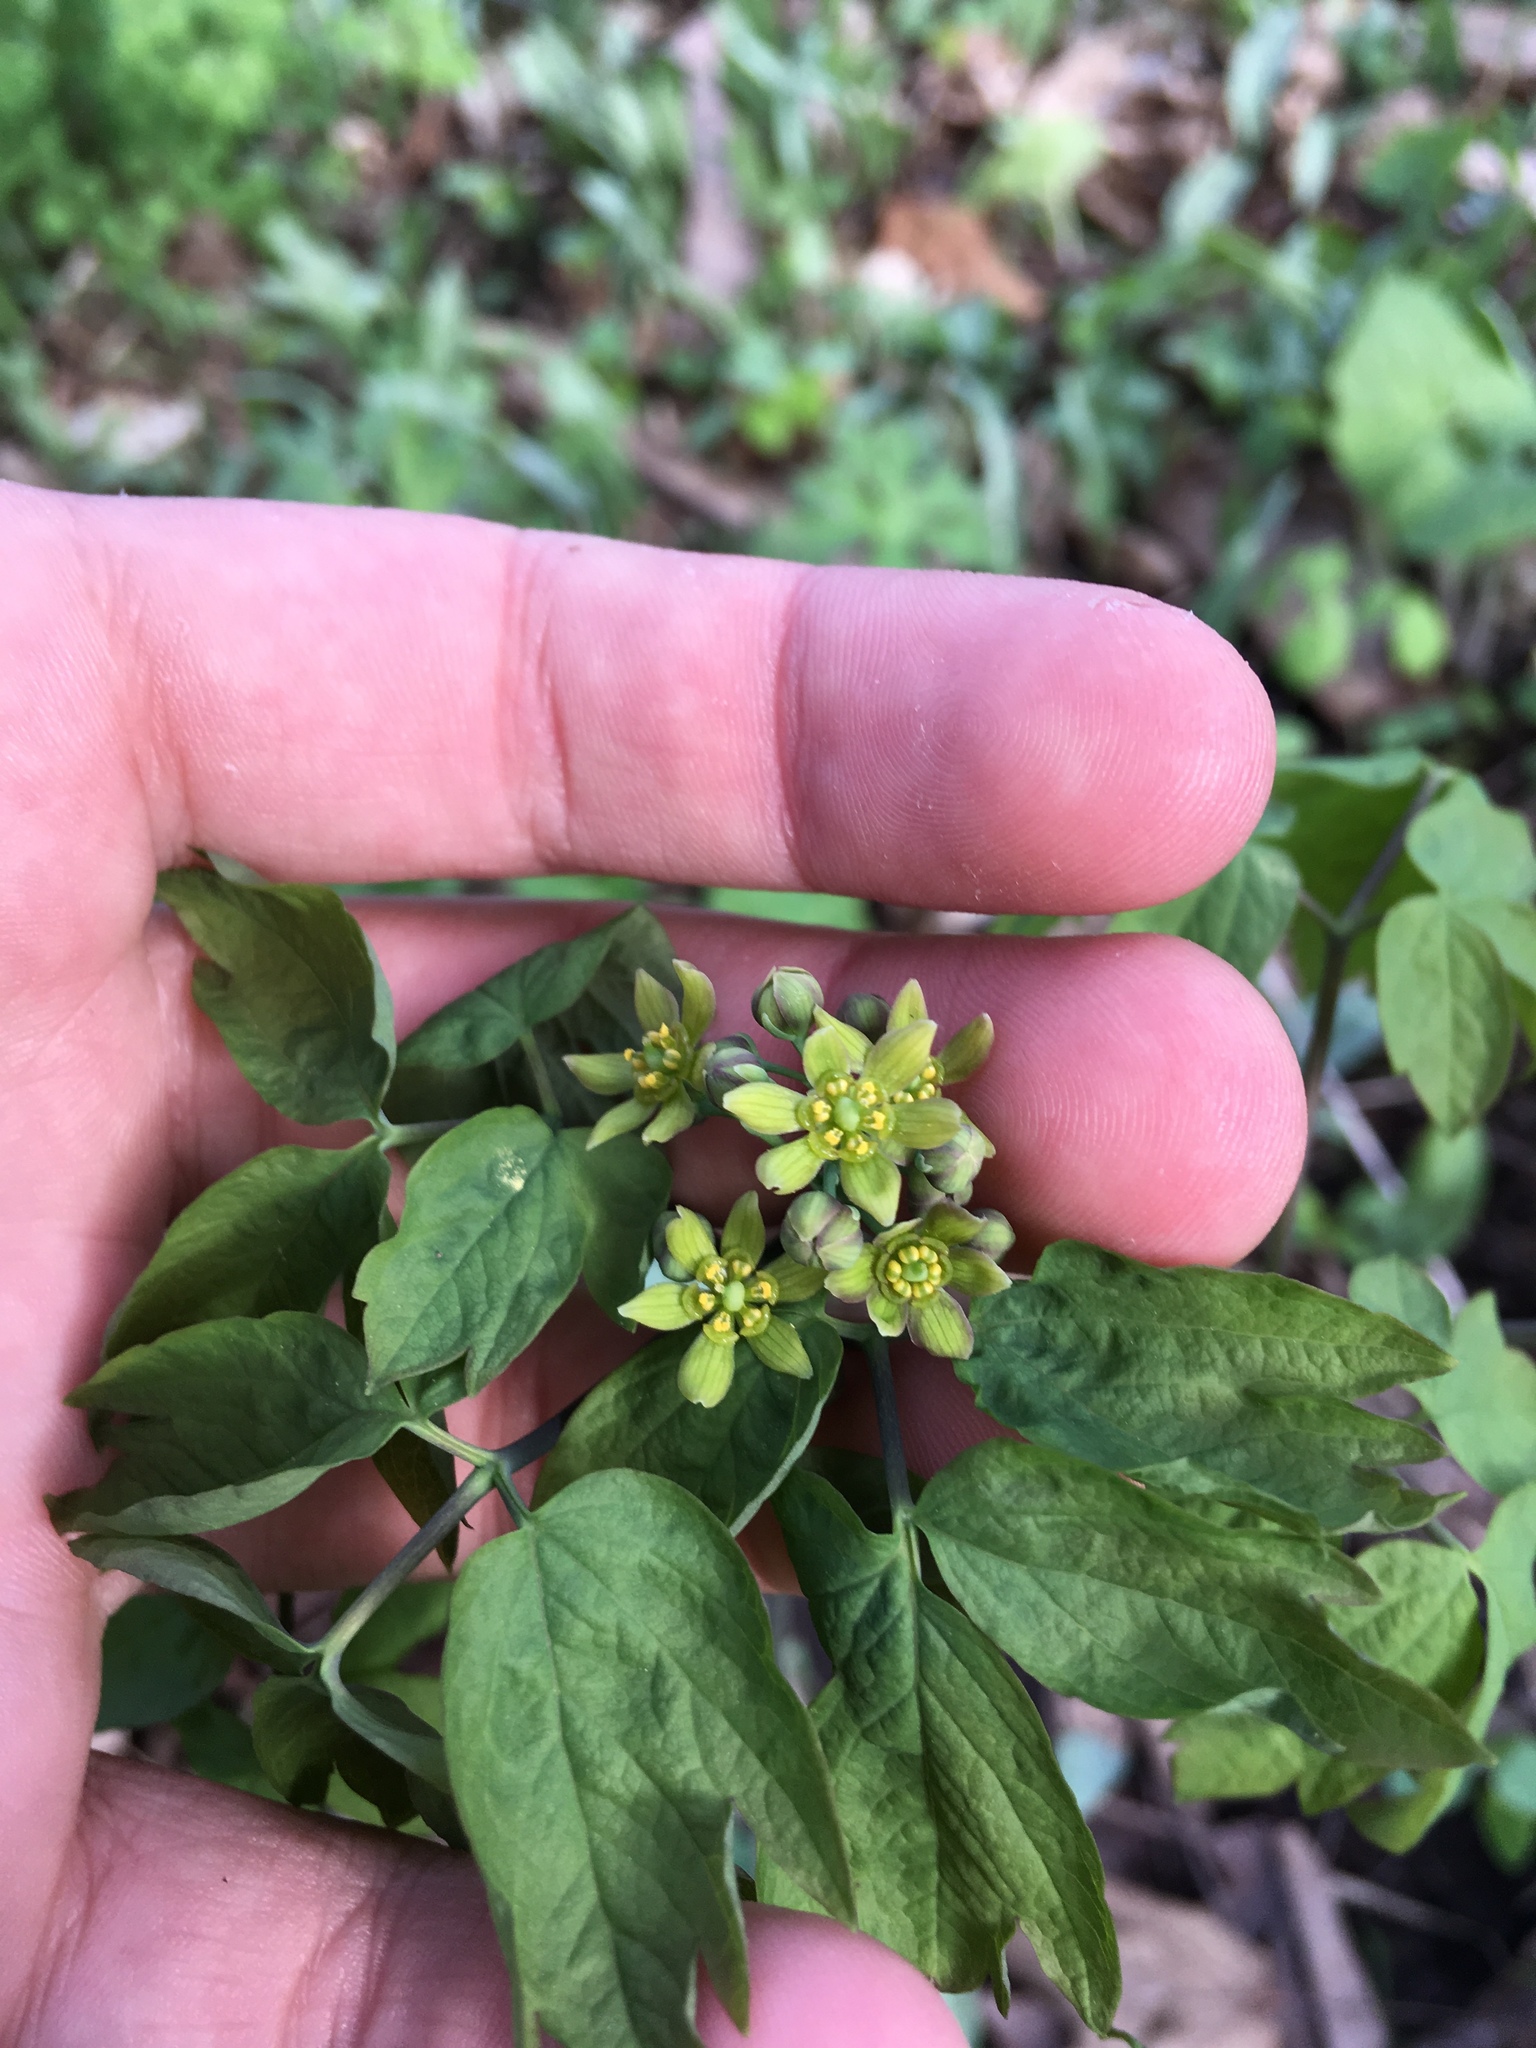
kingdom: Plantae
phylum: Tracheophyta
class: Magnoliopsida
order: Ranunculales
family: Berberidaceae
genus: Caulophyllum
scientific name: Caulophyllum thalictroides
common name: Blue cohosh
